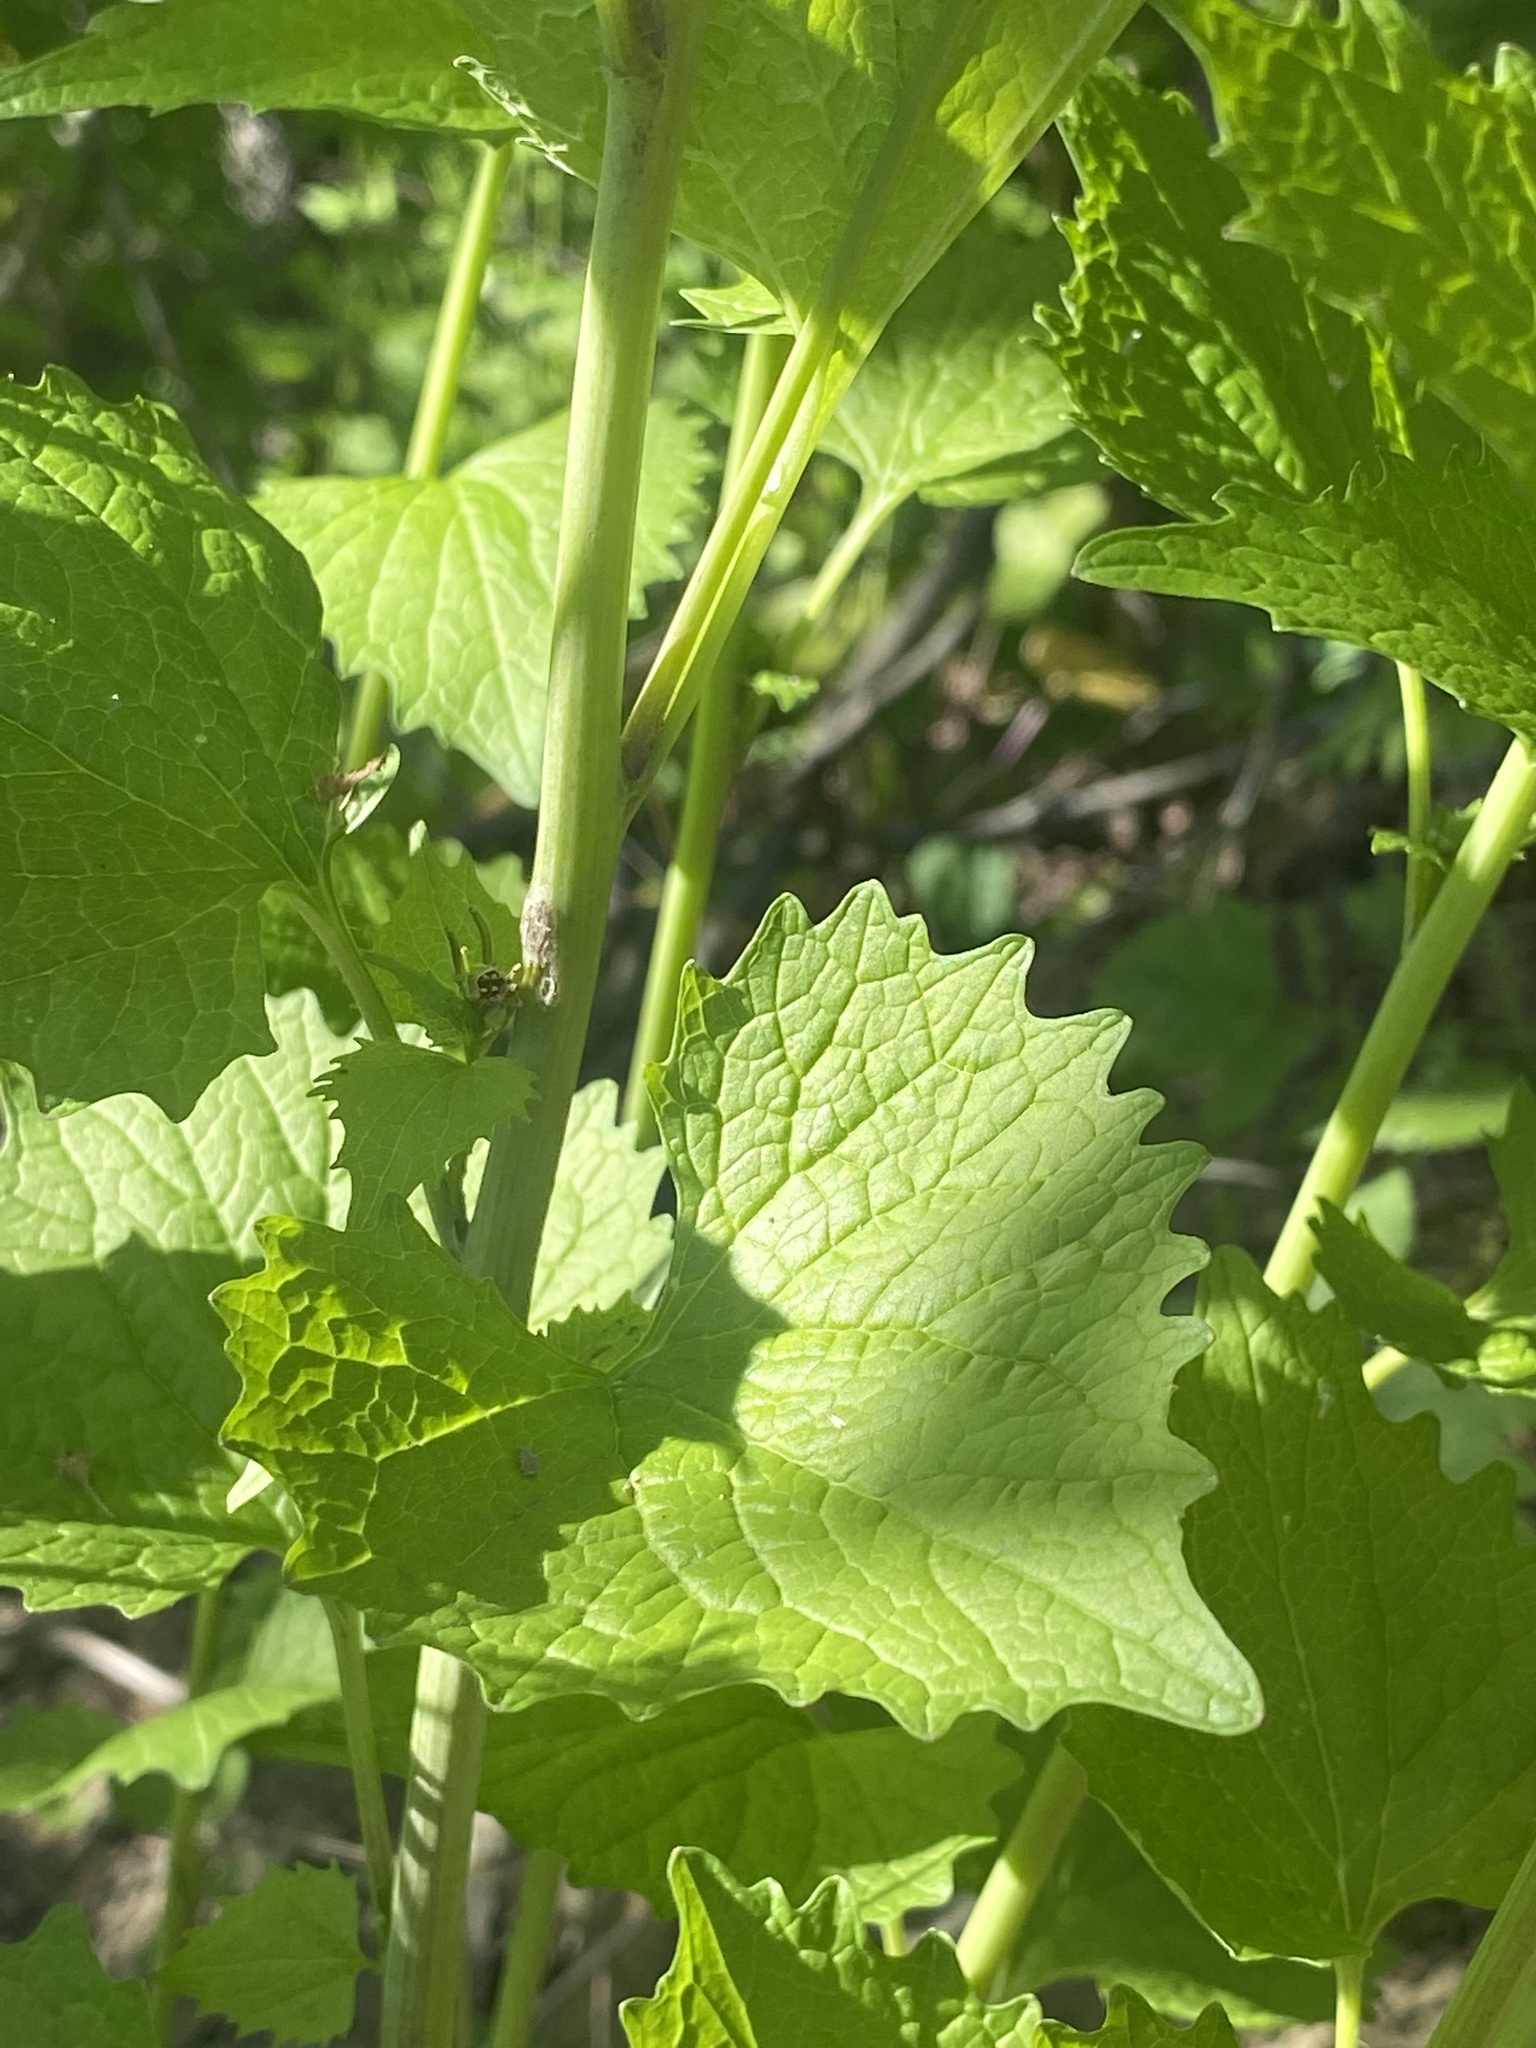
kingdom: Plantae
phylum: Tracheophyta
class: Magnoliopsida
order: Brassicales
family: Brassicaceae
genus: Alliaria
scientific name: Alliaria petiolata
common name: Garlic mustard
